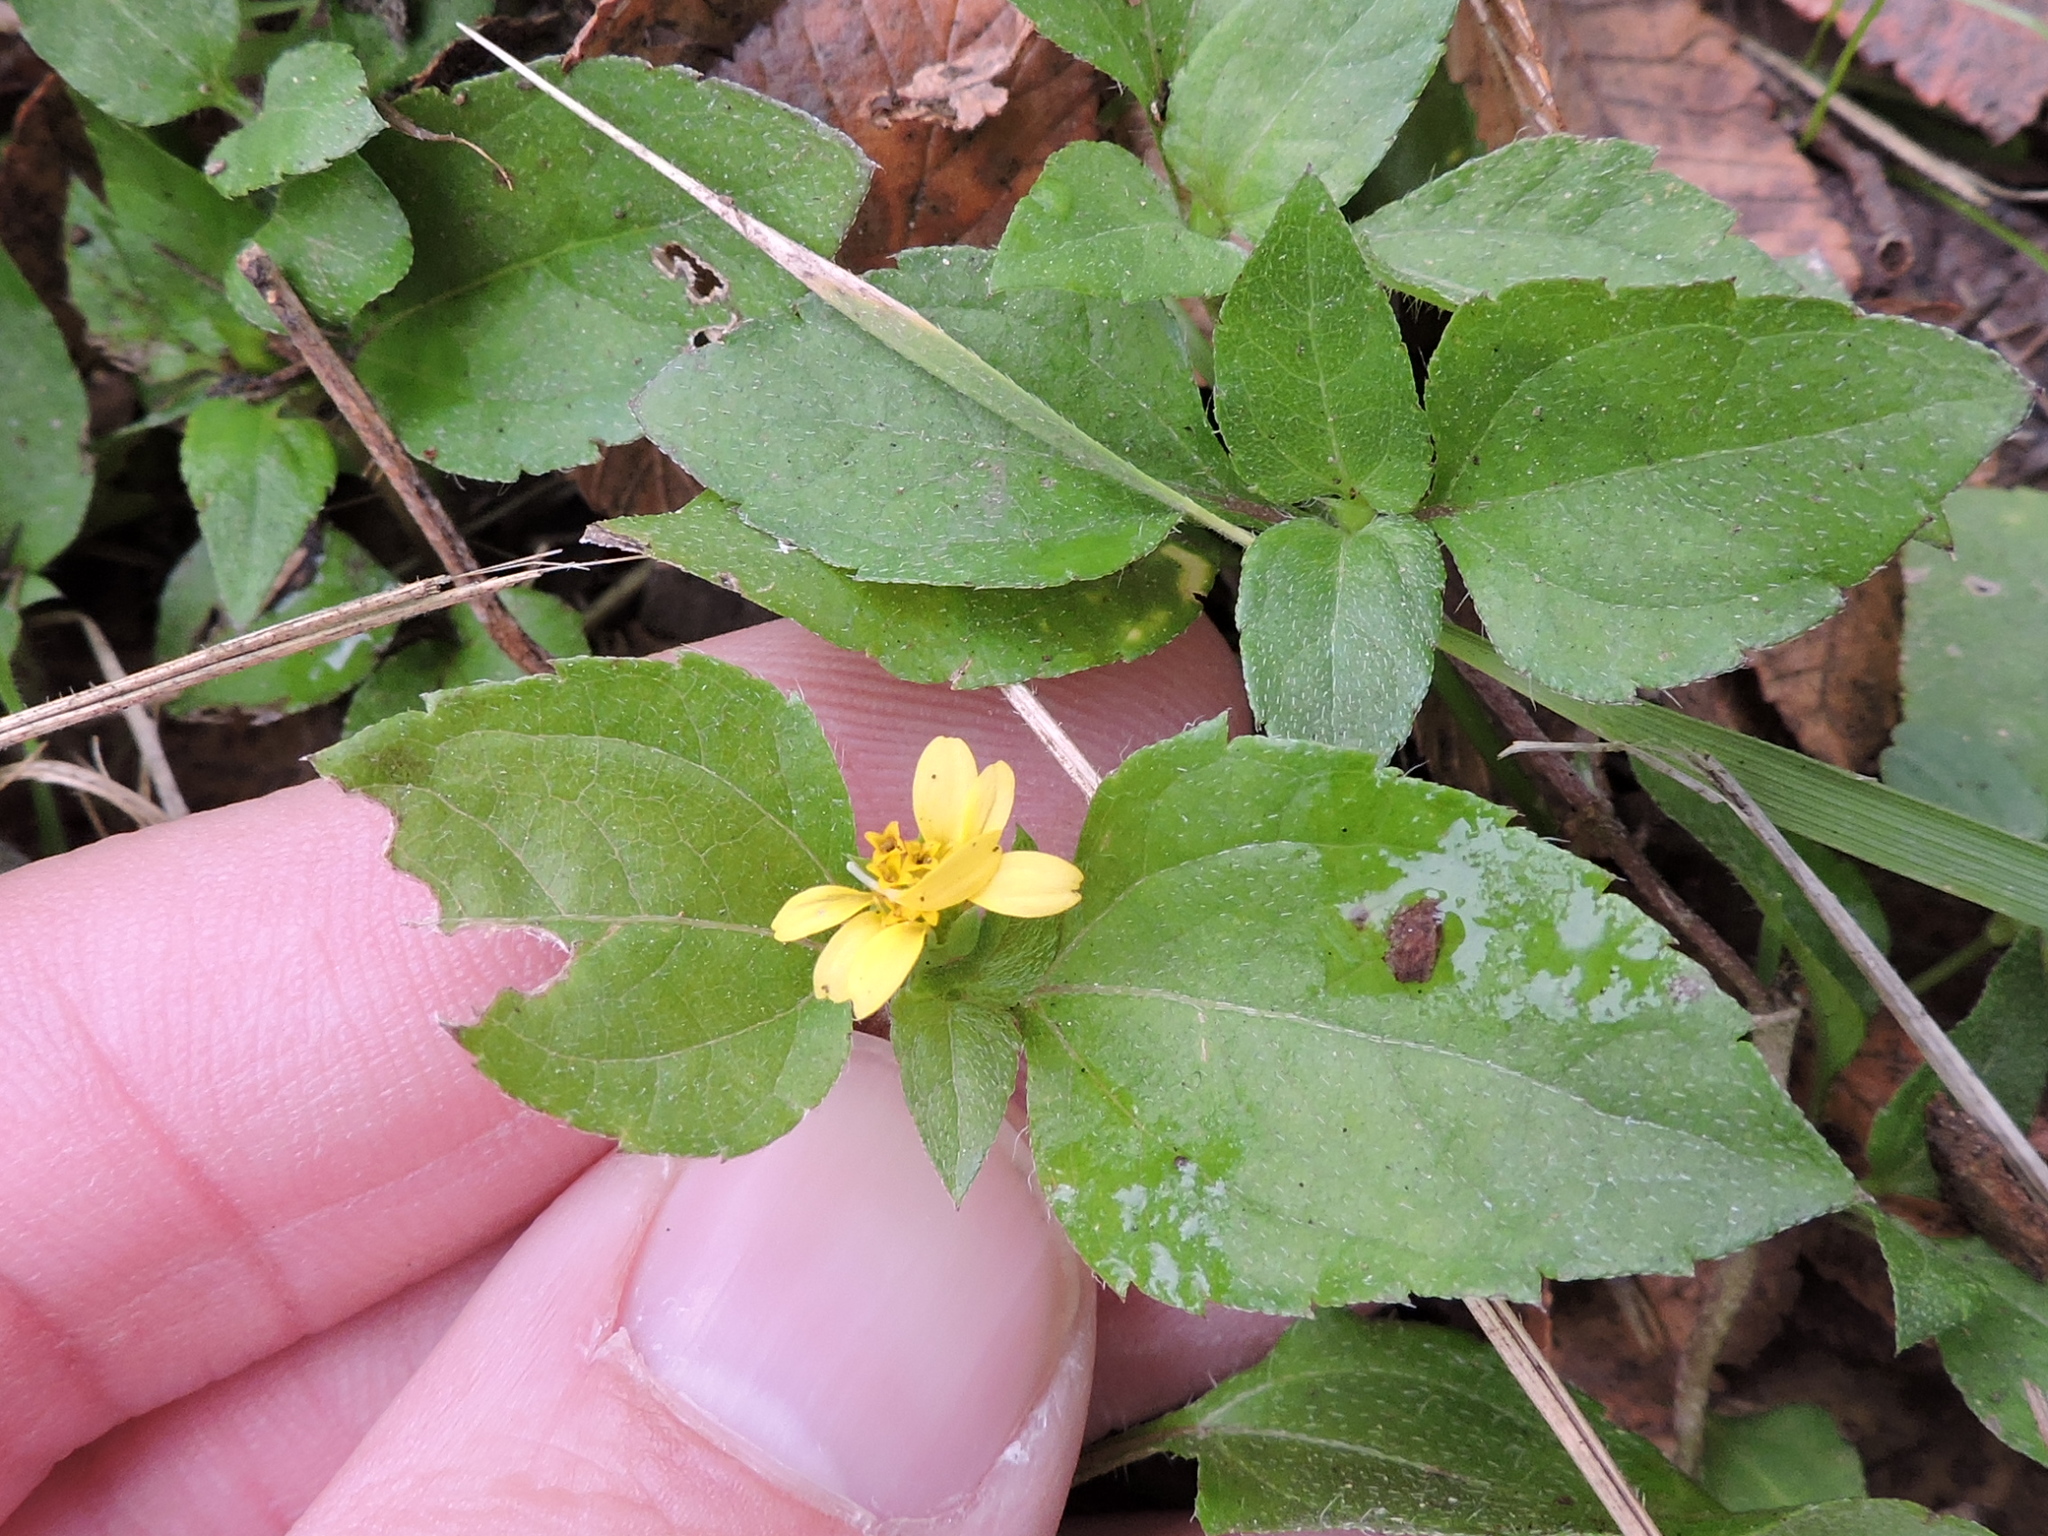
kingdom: Plantae
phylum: Tracheophyta
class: Magnoliopsida
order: Asterales
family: Asteraceae
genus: Calyptocarpus
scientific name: Calyptocarpus vialis
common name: Straggler daisy
